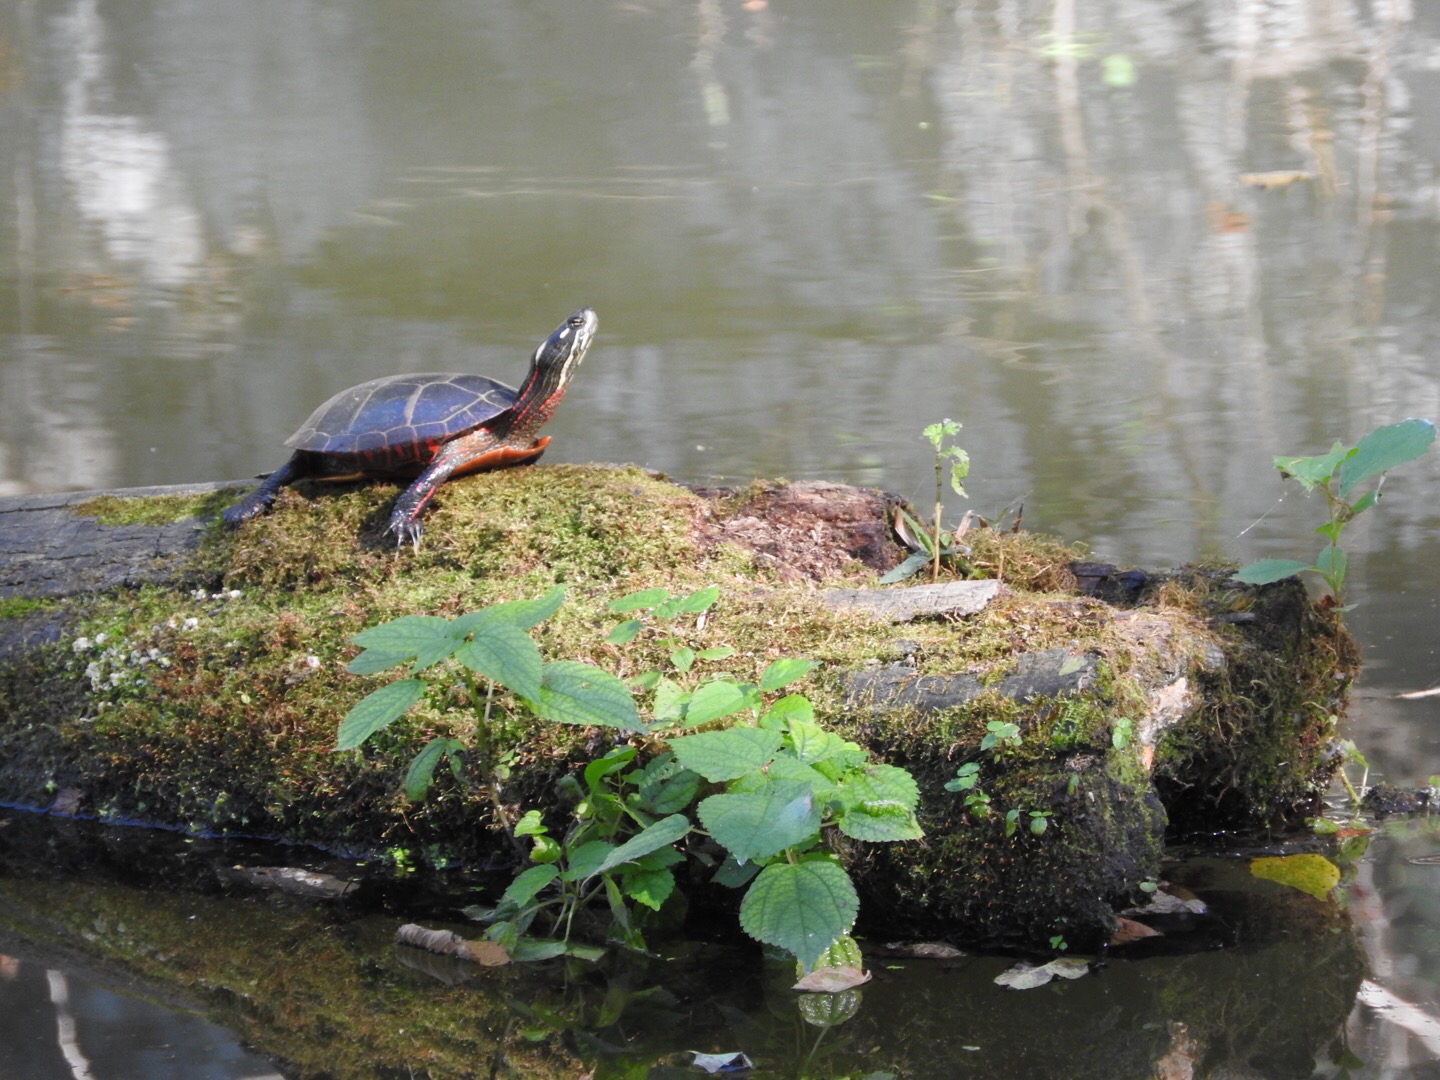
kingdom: Animalia
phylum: Chordata
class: Testudines
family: Emydidae
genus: Chrysemys
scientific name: Chrysemys picta
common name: Painted turtle
